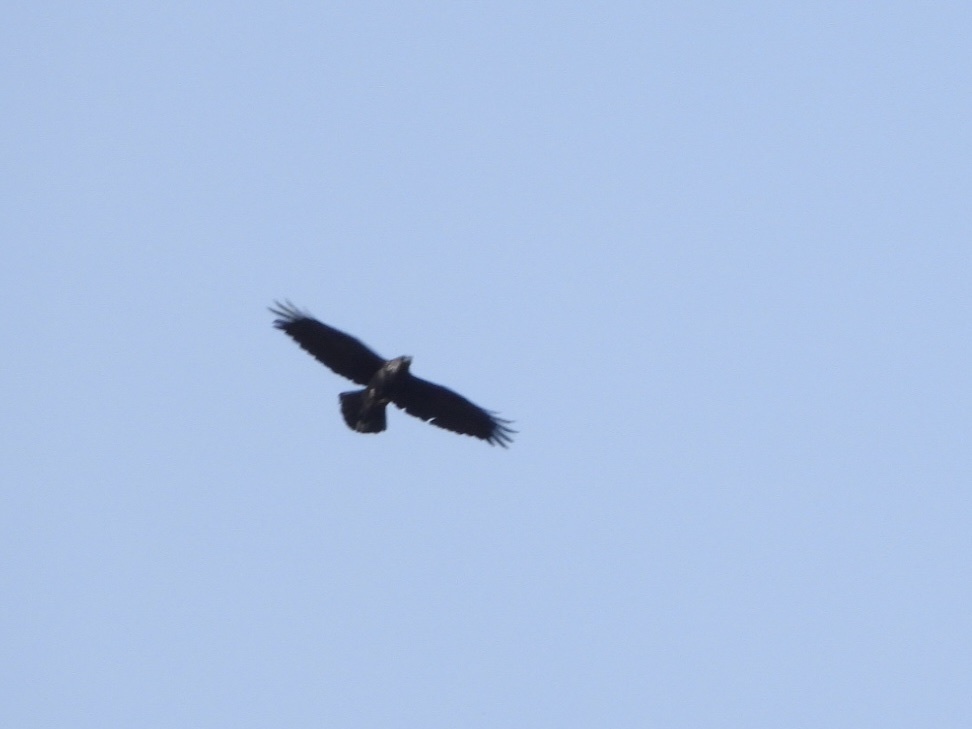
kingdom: Animalia
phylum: Chordata
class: Aves
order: Passeriformes
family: Corvidae
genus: Corvus
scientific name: Corvus corax
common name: Common raven
